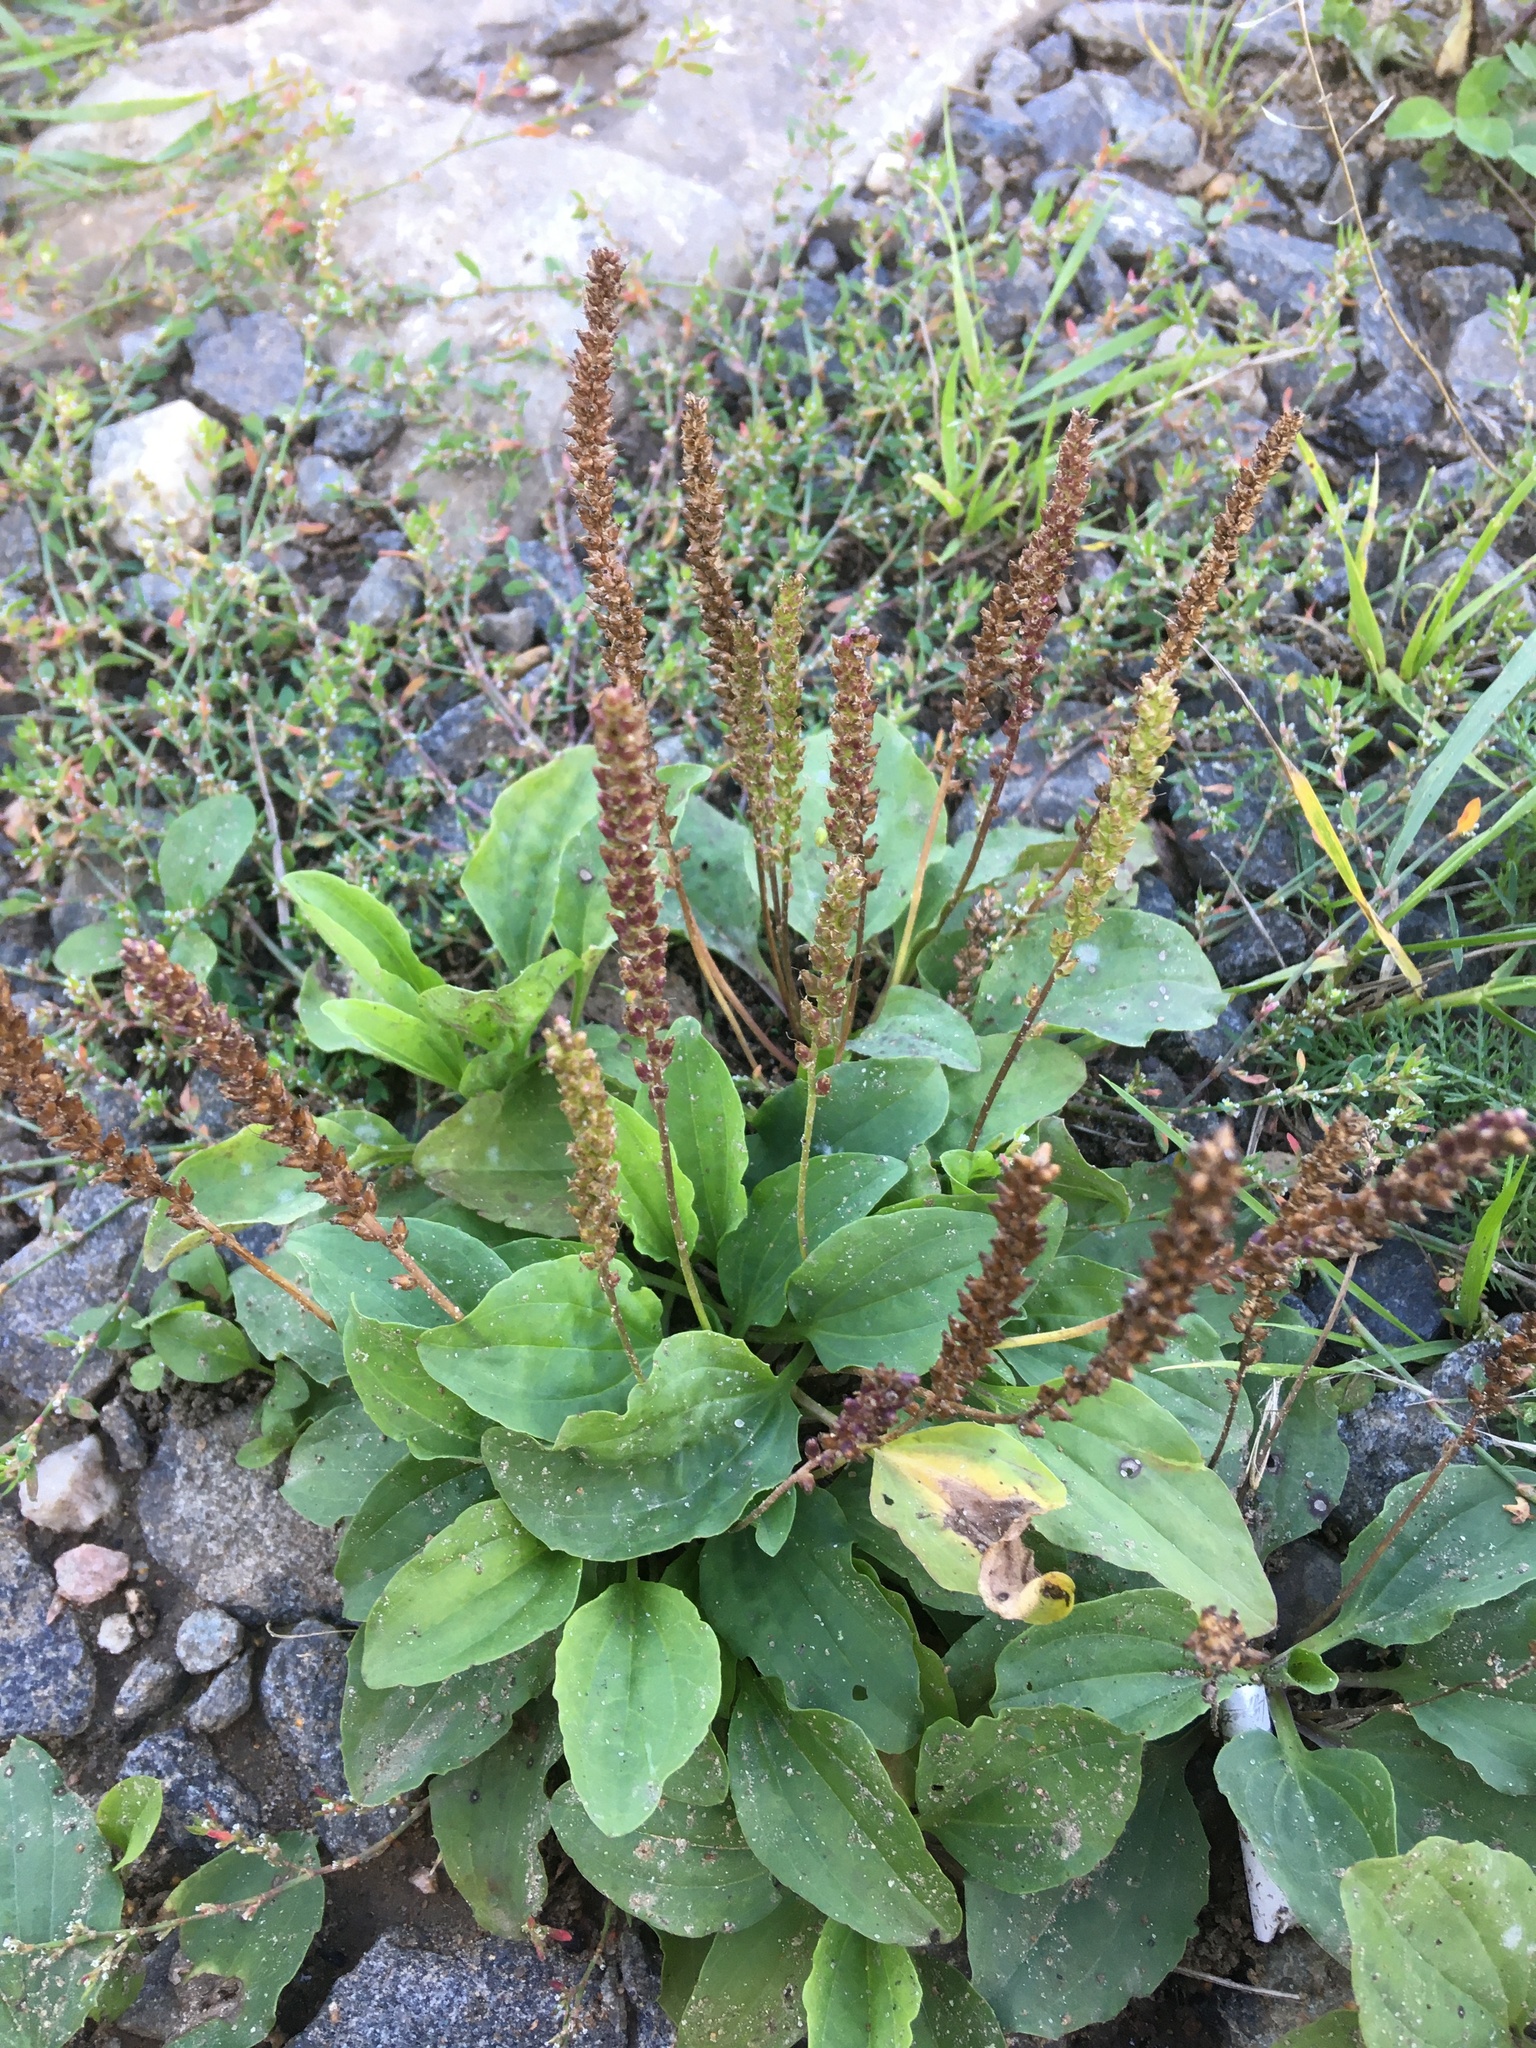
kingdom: Plantae
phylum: Tracheophyta
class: Magnoliopsida
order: Lamiales
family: Plantaginaceae
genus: Plantago
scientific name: Plantago major
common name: Common plantain
